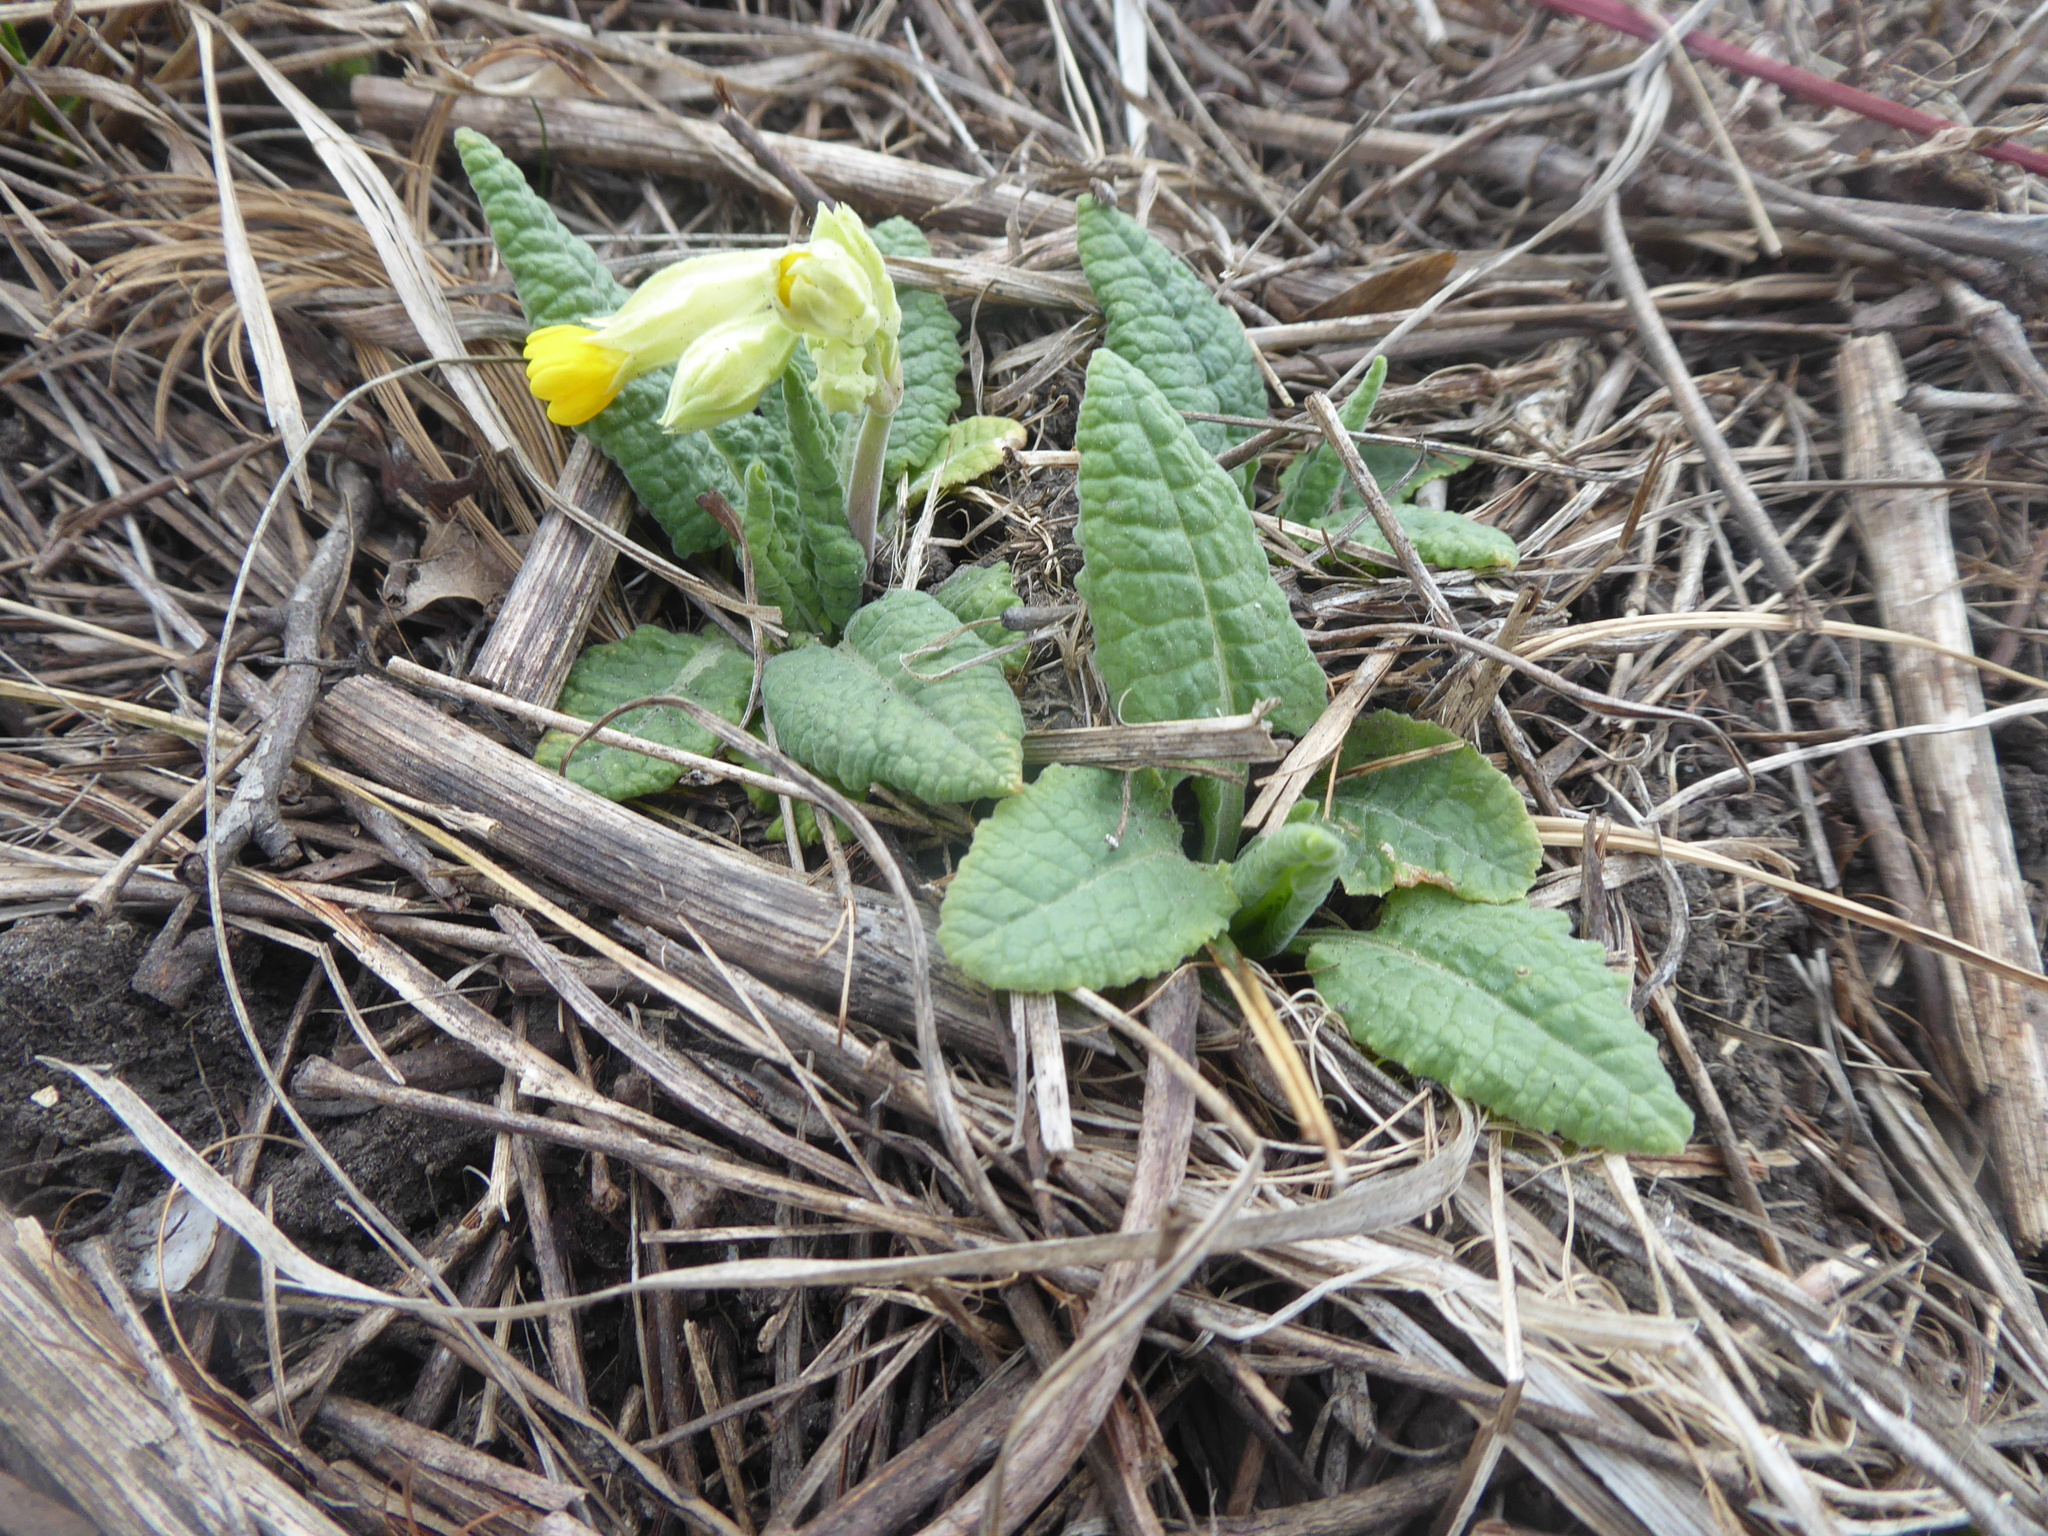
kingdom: Plantae
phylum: Tracheophyta
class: Magnoliopsida
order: Ericales
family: Primulaceae
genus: Primula
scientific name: Primula veris
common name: Cowslip
